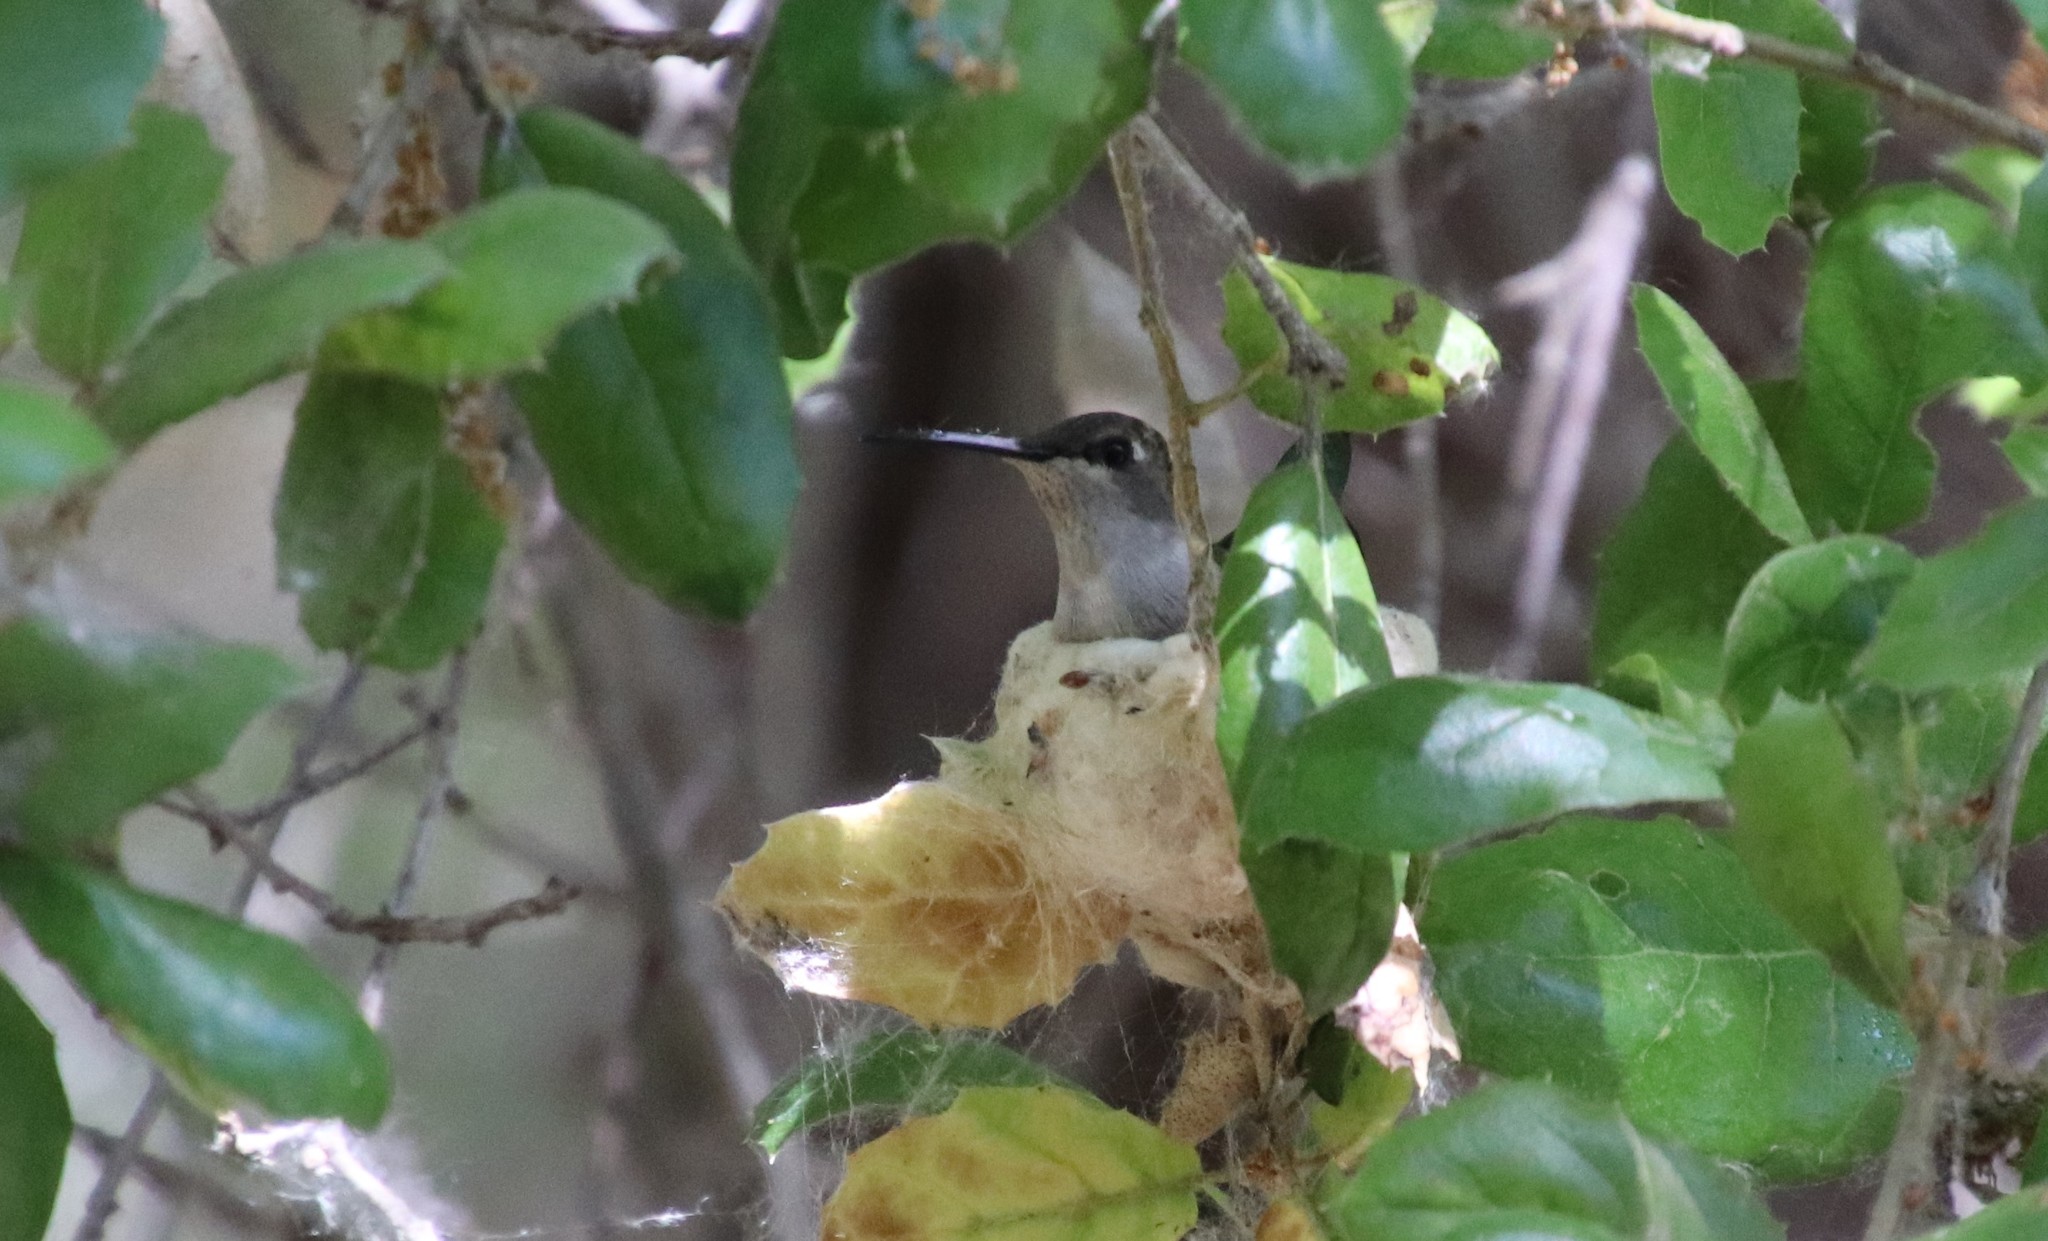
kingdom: Animalia
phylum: Chordata
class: Aves
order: Apodiformes
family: Trochilidae
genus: Archilochus
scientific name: Archilochus alexandri
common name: Black-chinned hummingbird
